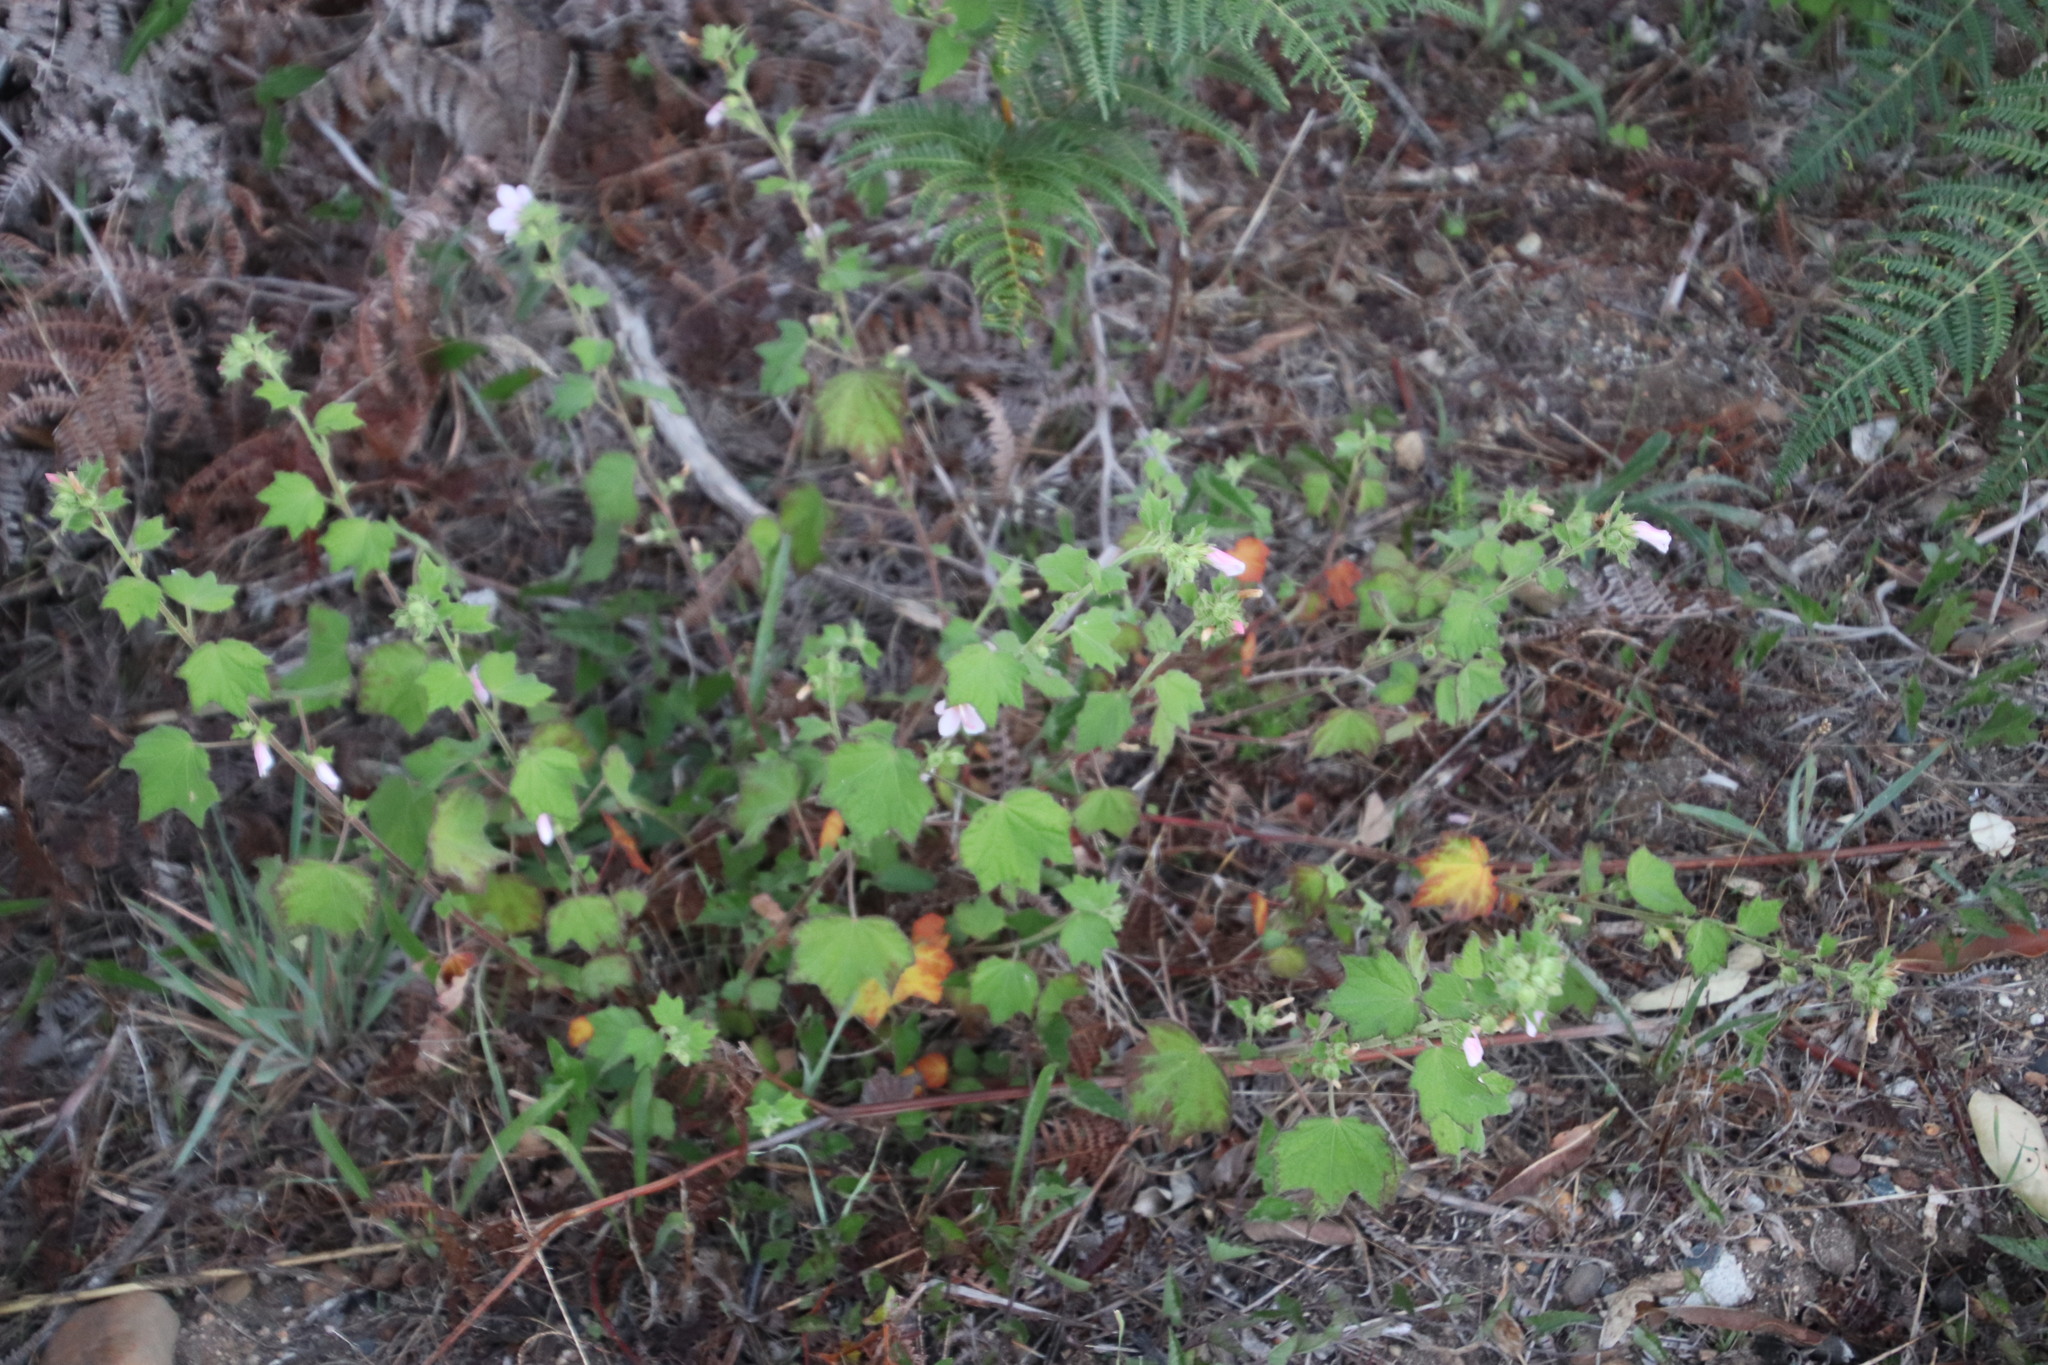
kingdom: Plantae
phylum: Tracheophyta
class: Magnoliopsida
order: Malvales
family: Malvaceae
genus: Pavonia
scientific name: Pavonia columella
